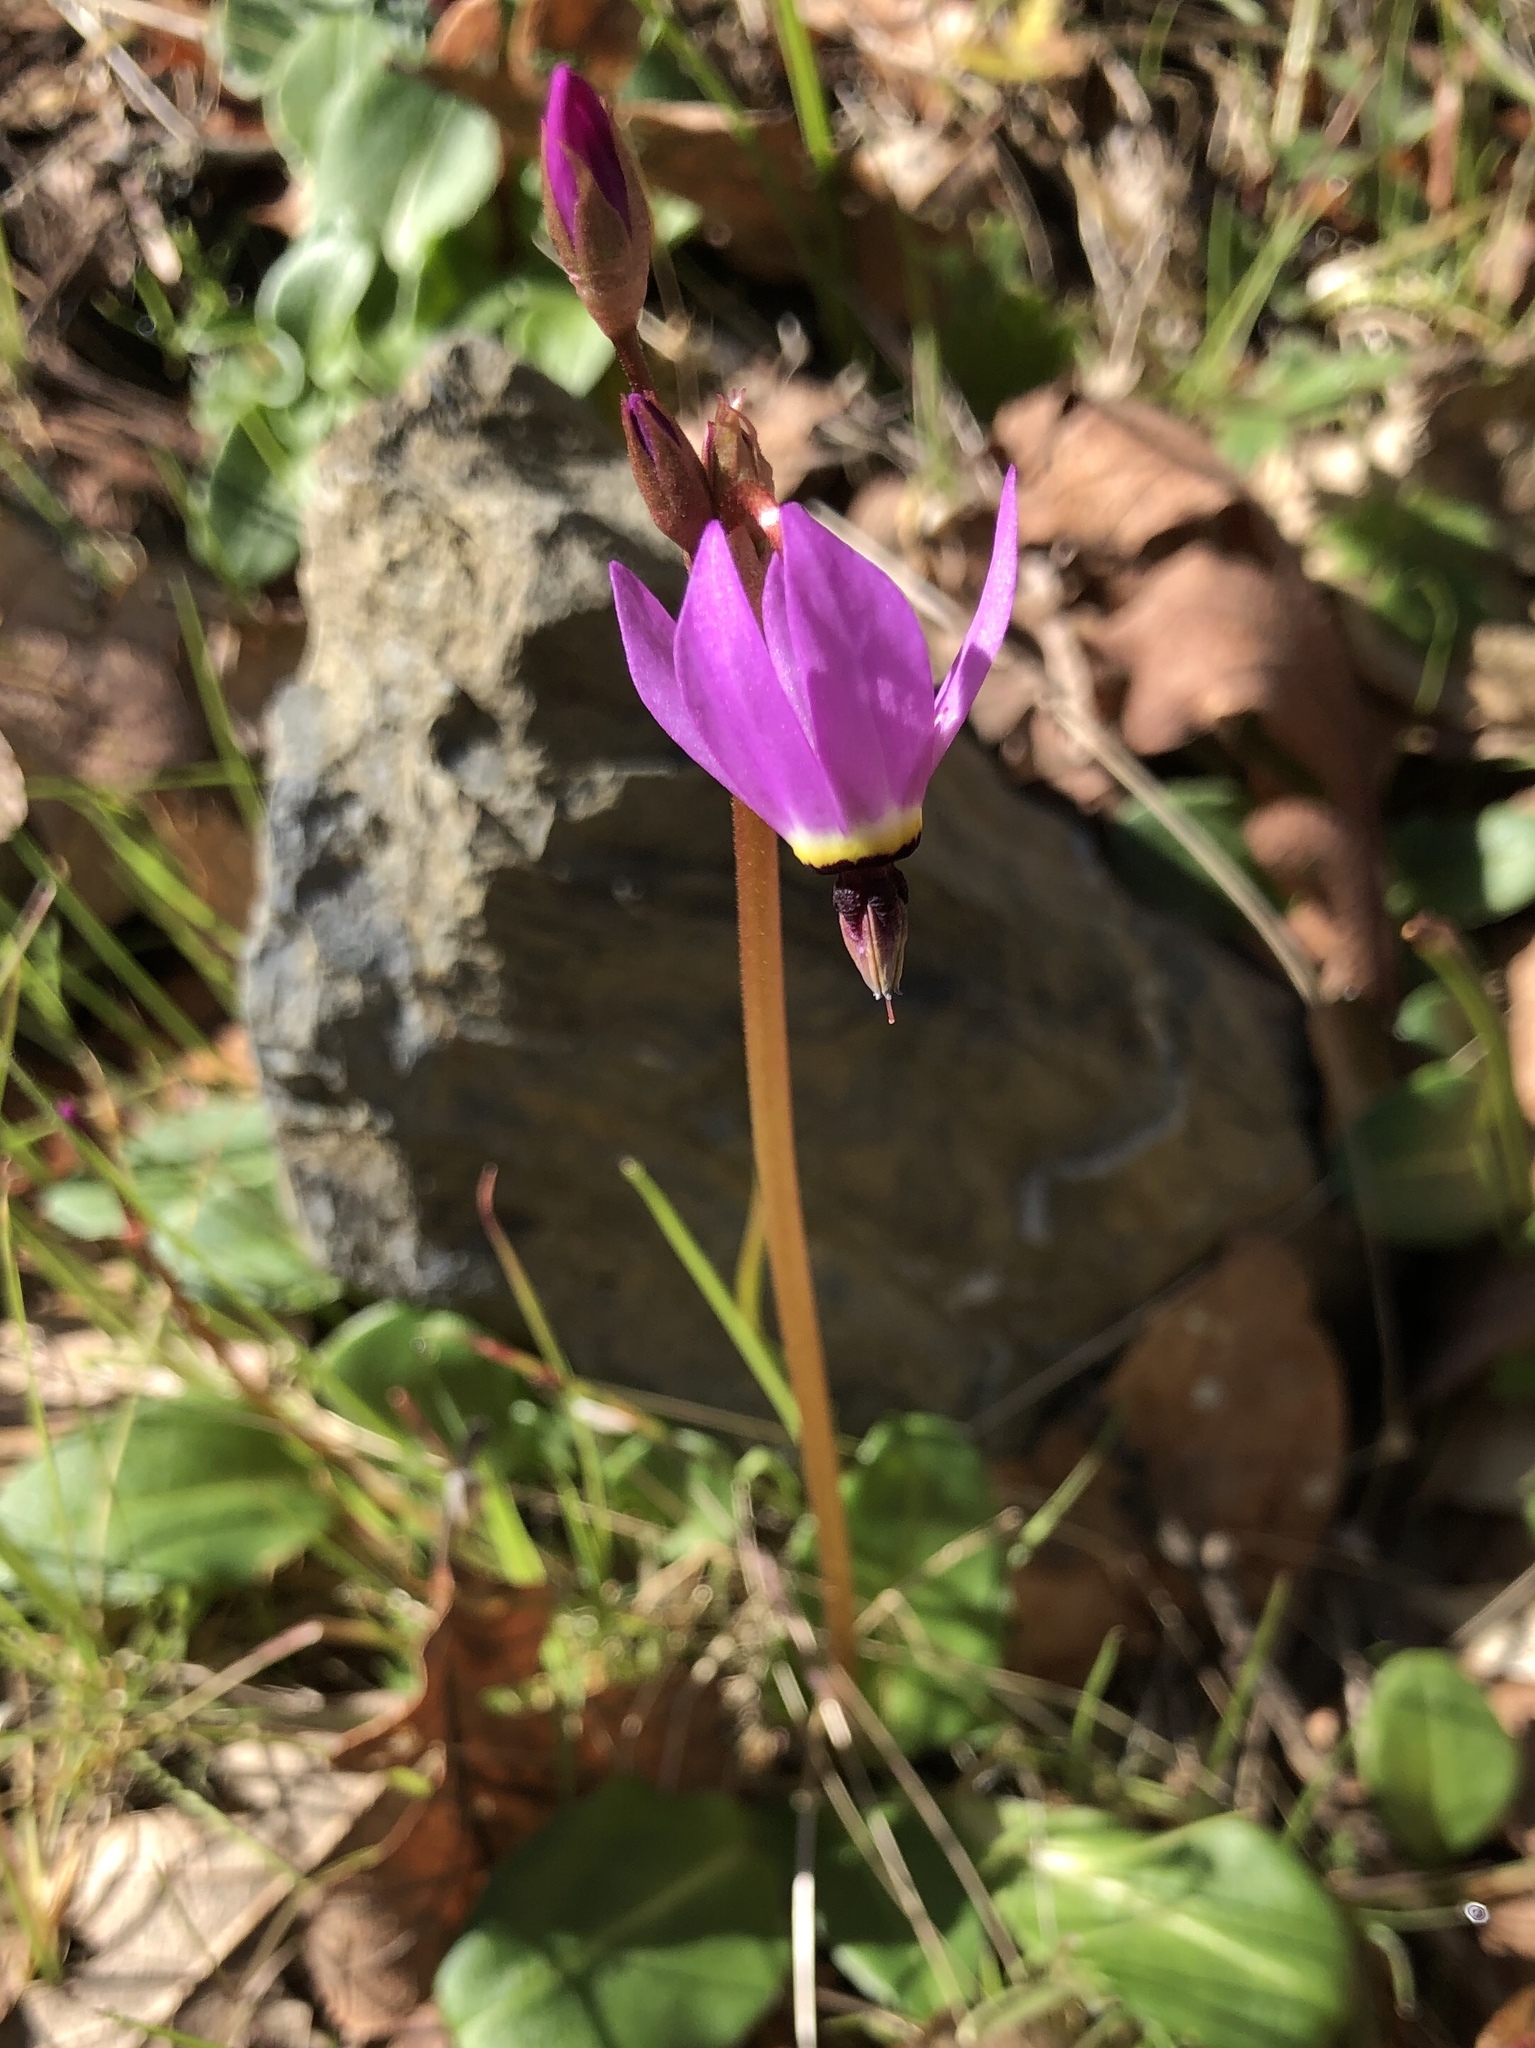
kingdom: Plantae
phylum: Tracheophyta
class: Magnoliopsida
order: Ericales
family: Primulaceae
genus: Dodecatheon
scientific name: Dodecatheon hendersonii
